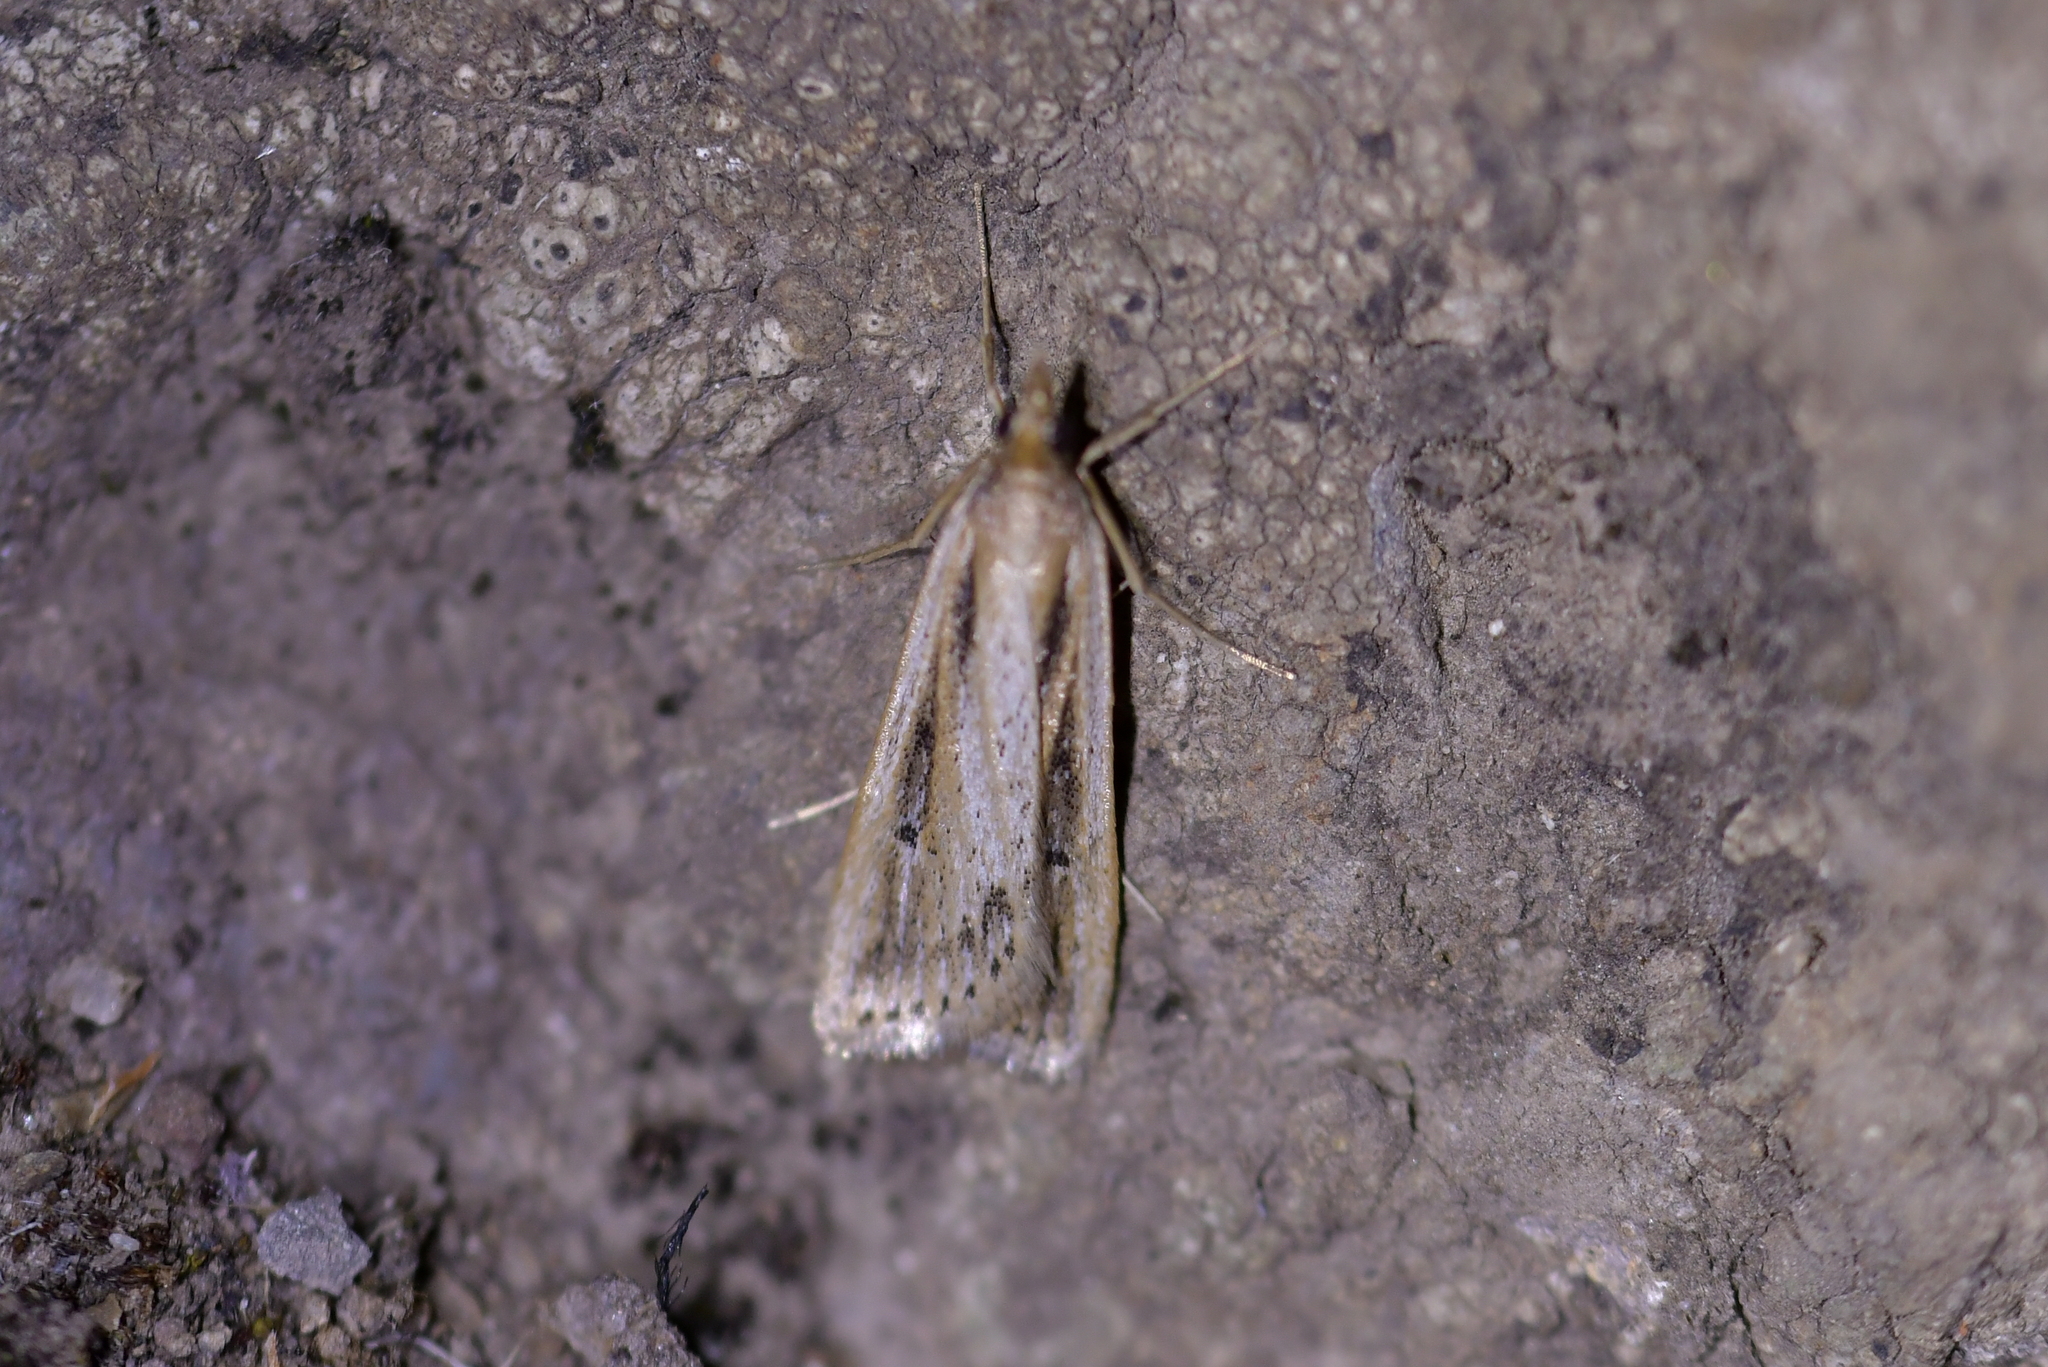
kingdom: Animalia
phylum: Arthropoda
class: Insecta
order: Lepidoptera
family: Crambidae
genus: Eudonia
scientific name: Eudonia sabulosella
